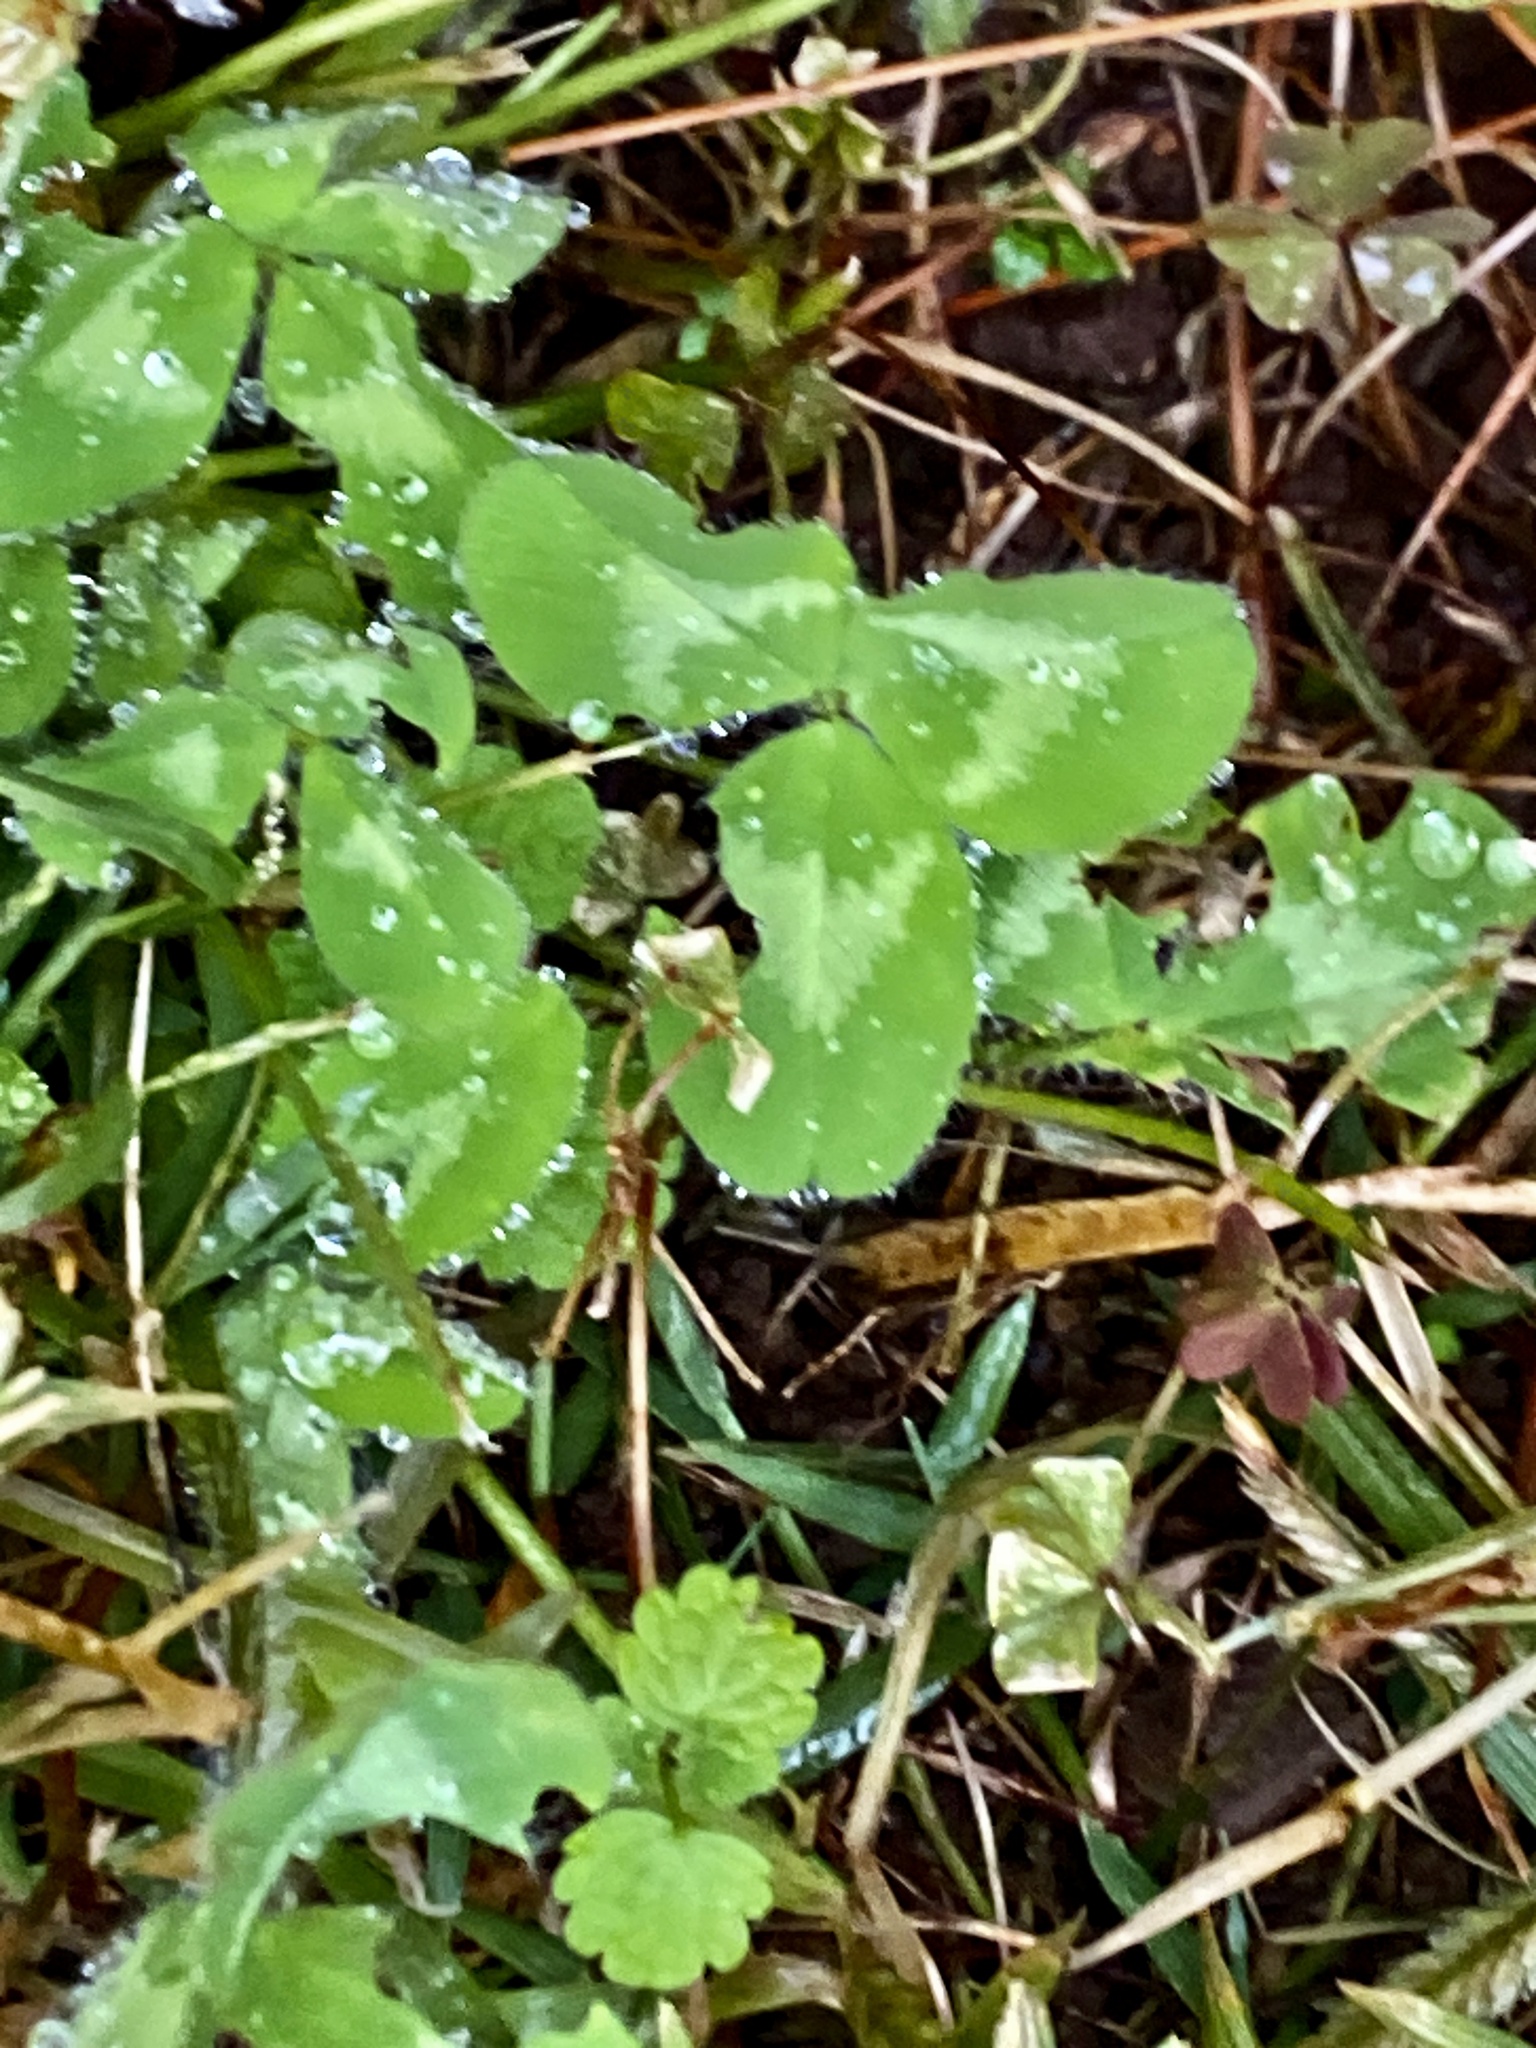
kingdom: Plantae
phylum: Tracheophyta
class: Magnoliopsida
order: Fabales
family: Fabaceae
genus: Trifolium
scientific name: Trifolium pratense
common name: Red clover
